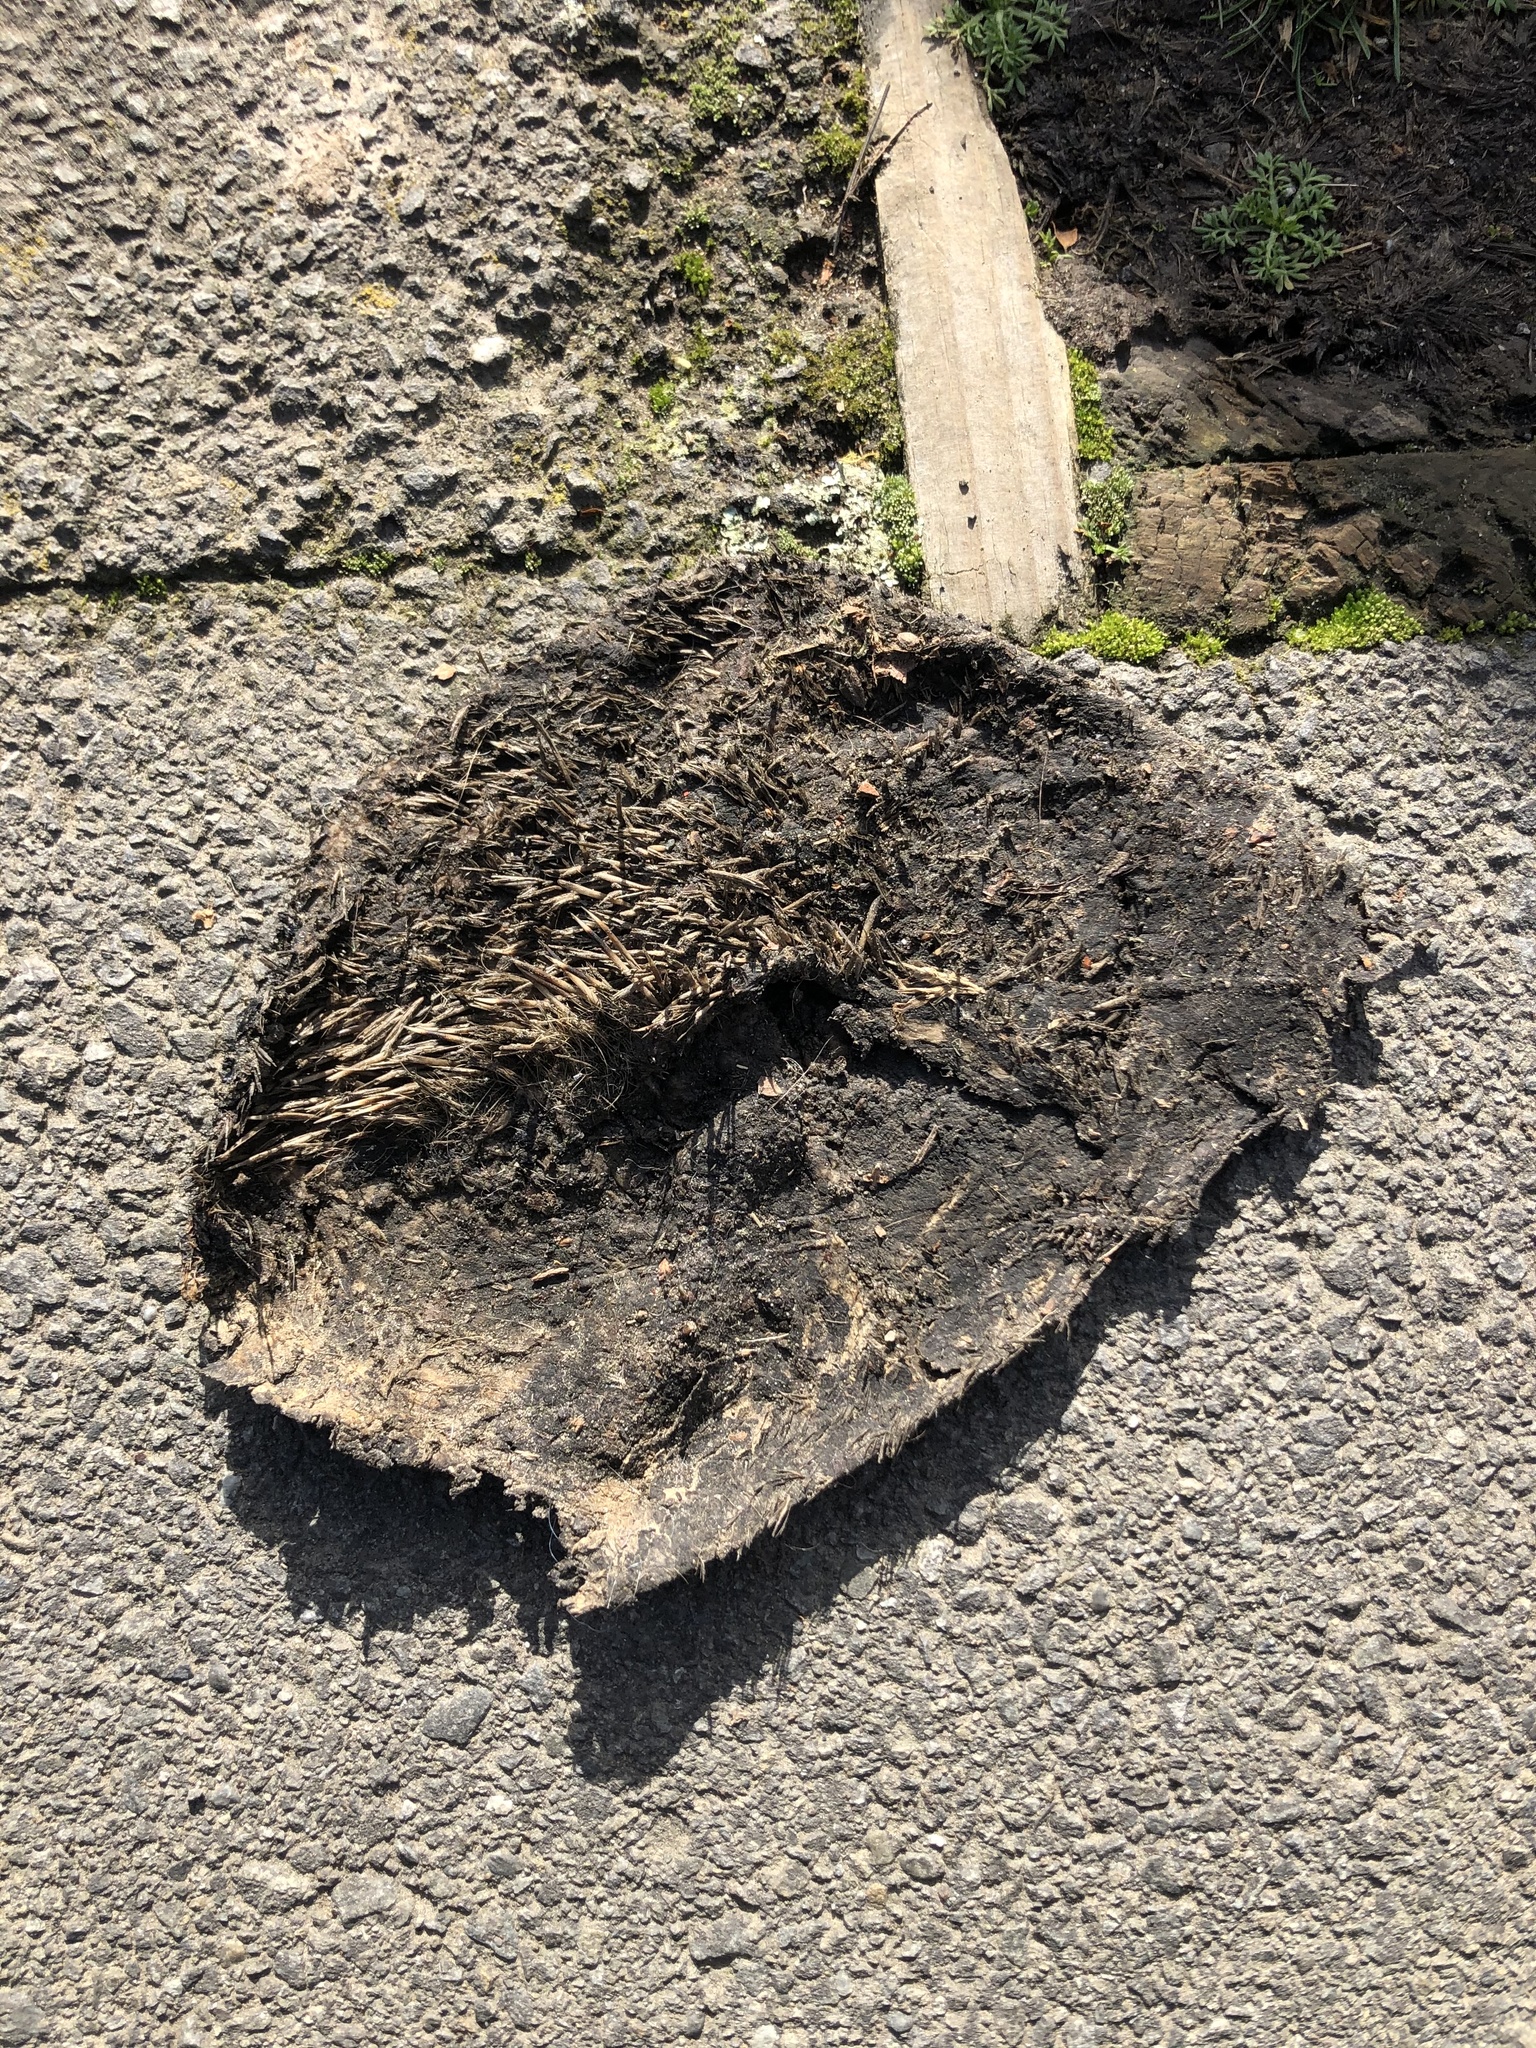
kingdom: Animalia
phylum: Chordata
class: Mammalia
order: Erinaceomorpha
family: Erinaceidae
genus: Erinaceus
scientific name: Erinaceus europaeus
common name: West european hedgehog
